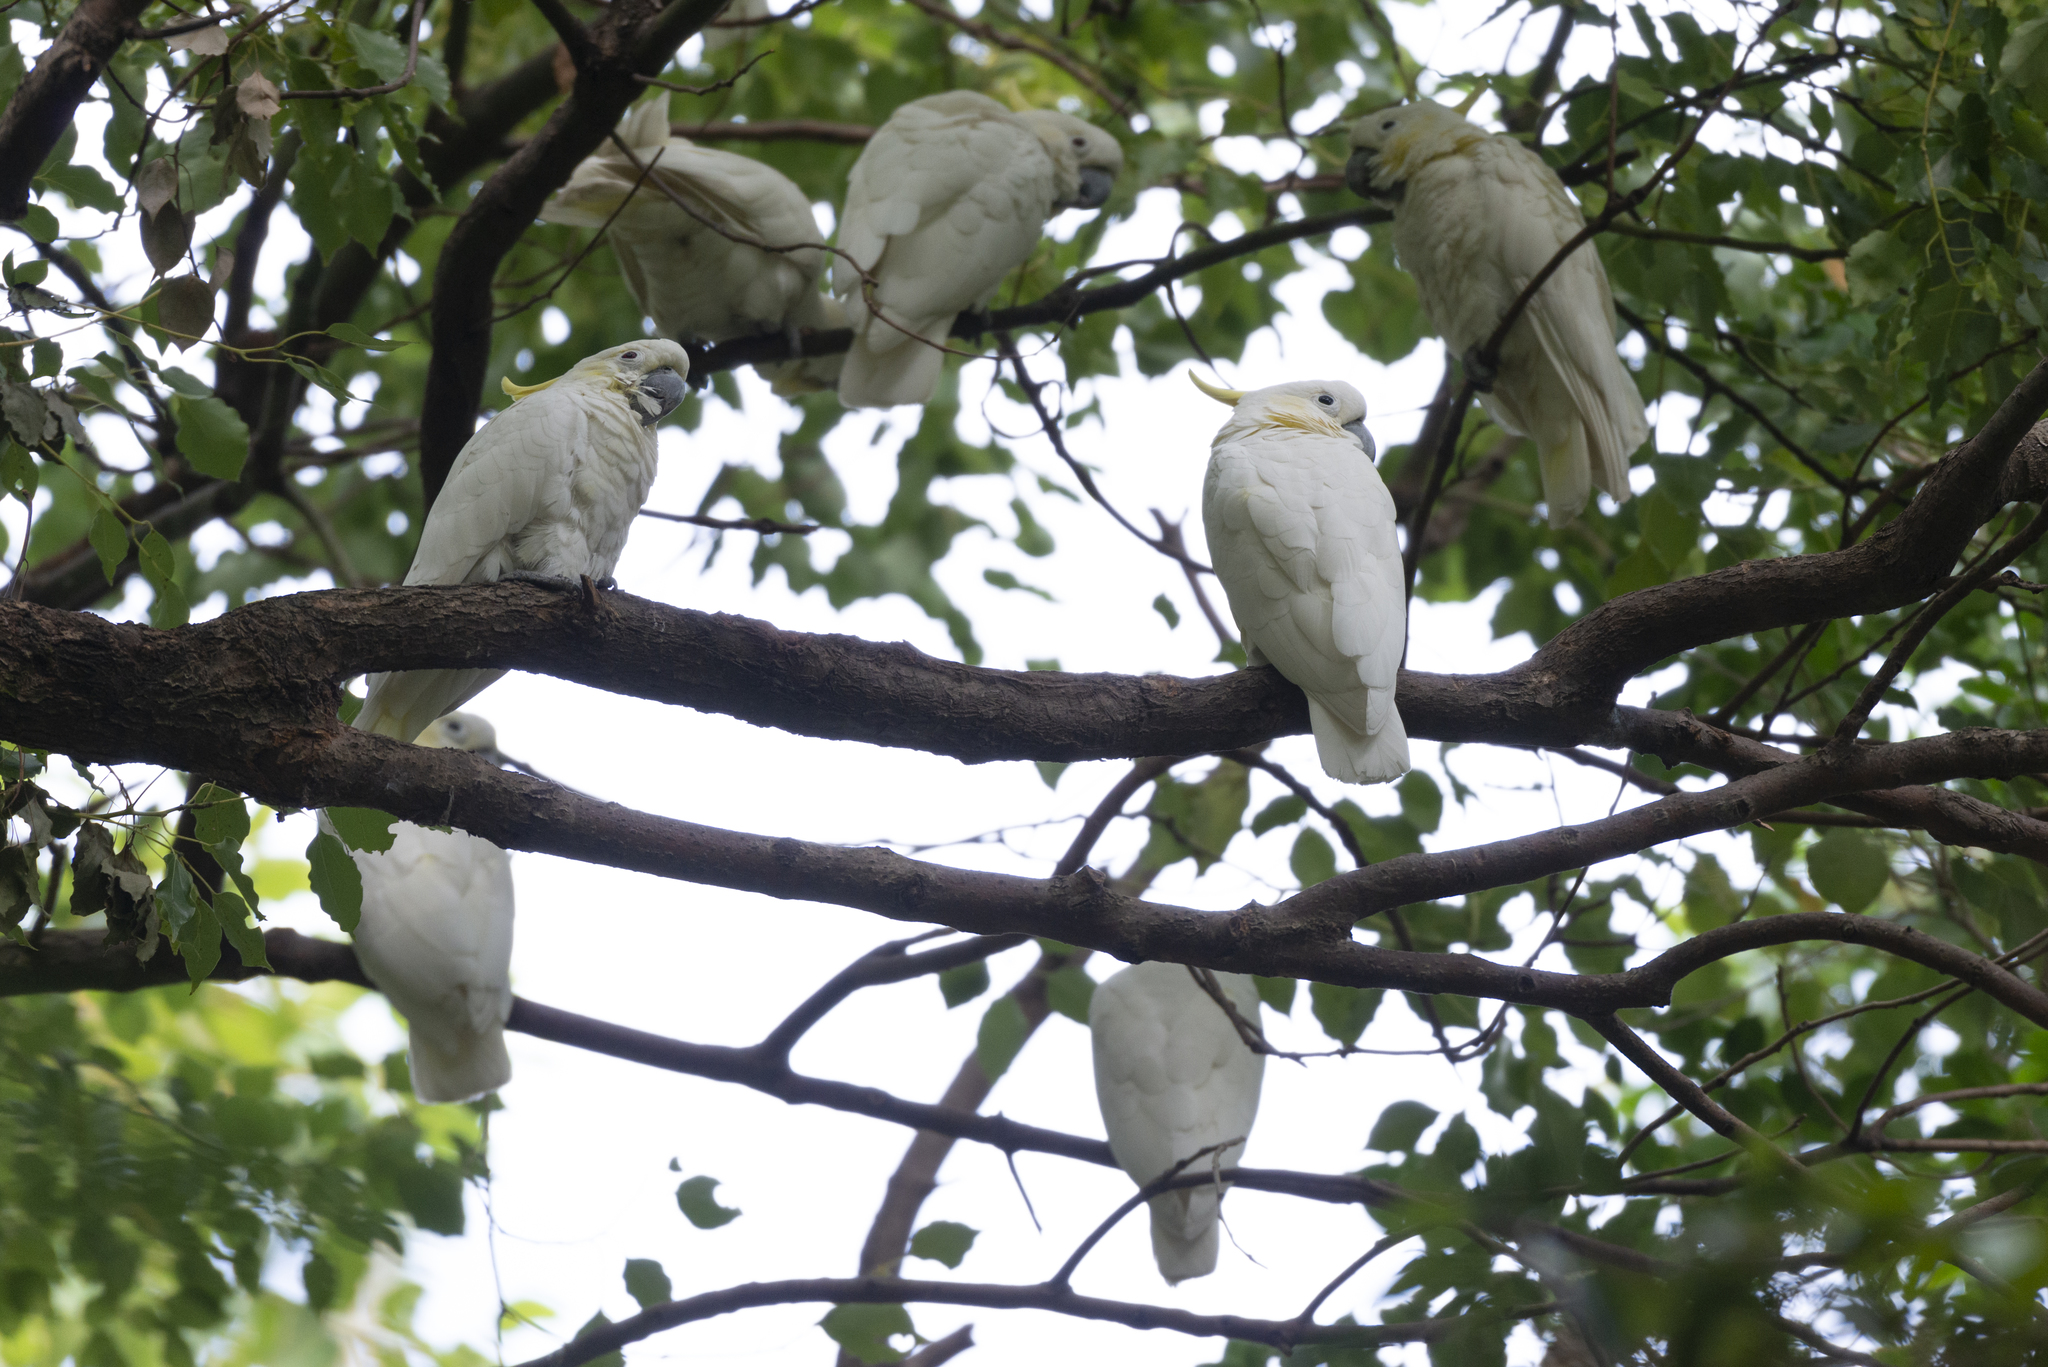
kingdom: Animalia
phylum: Chordata
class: Aves
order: Psittaciformes
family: Psittacidae
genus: Cacatua
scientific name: Cacatua sulphurea
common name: Yellow-crested cockatoo
